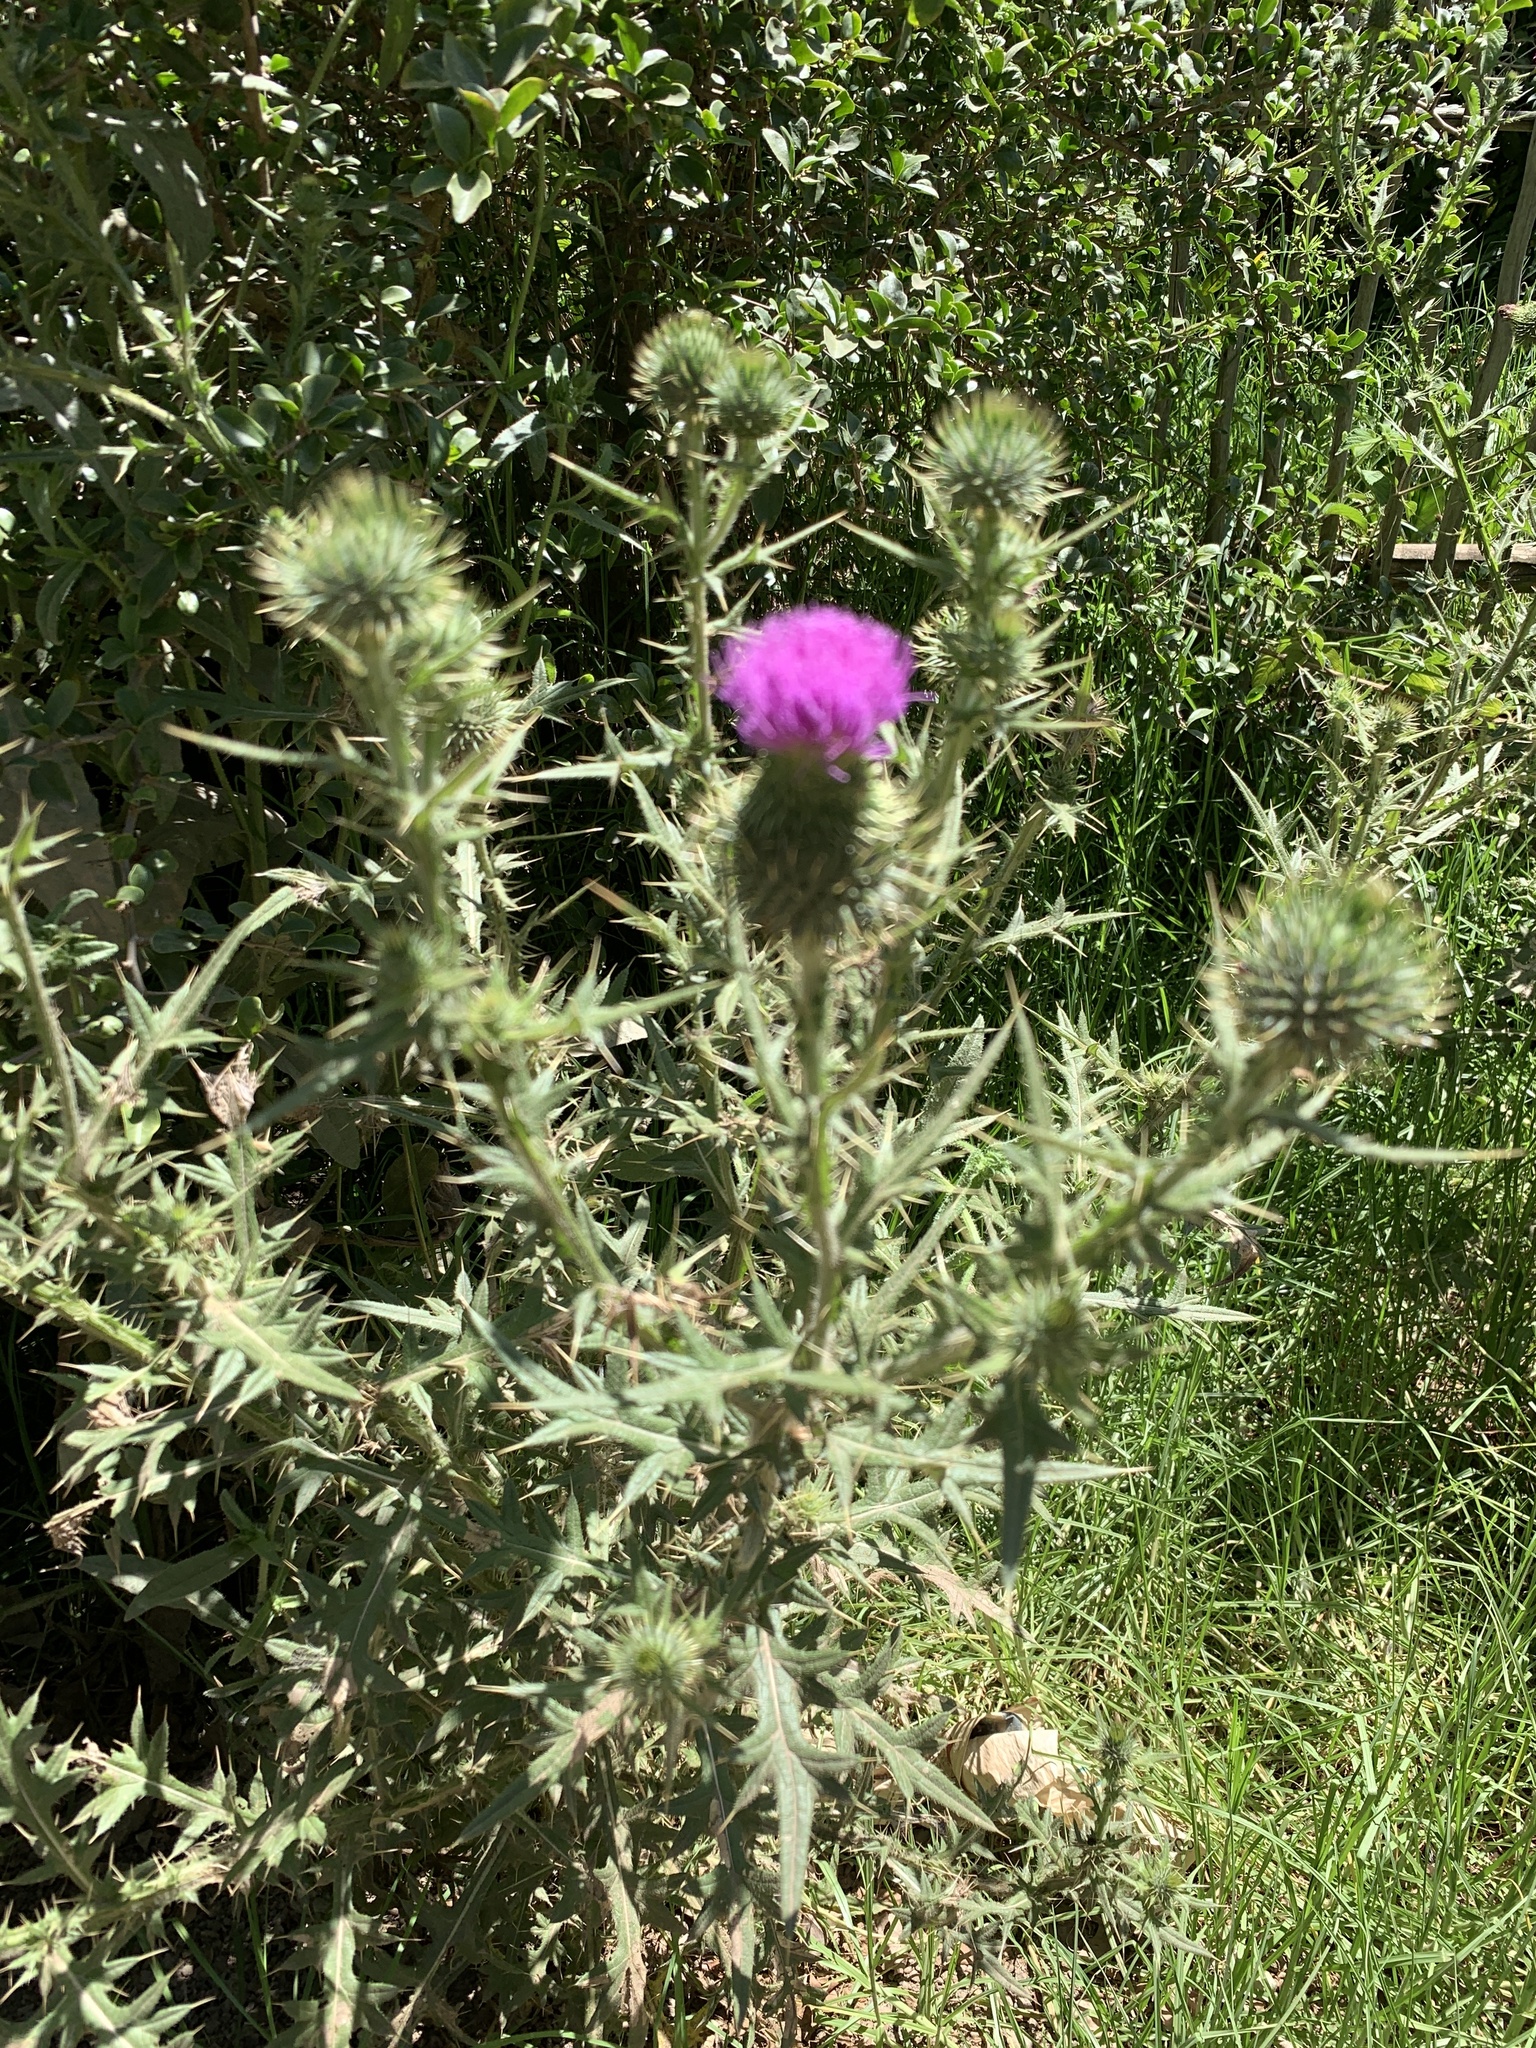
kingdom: Plantae
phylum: Tracheophyta
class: Magnoliopsida
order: Asterales
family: Asteraceae
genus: Cirsium
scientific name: Cirsium vulgare
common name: Bull thistle
